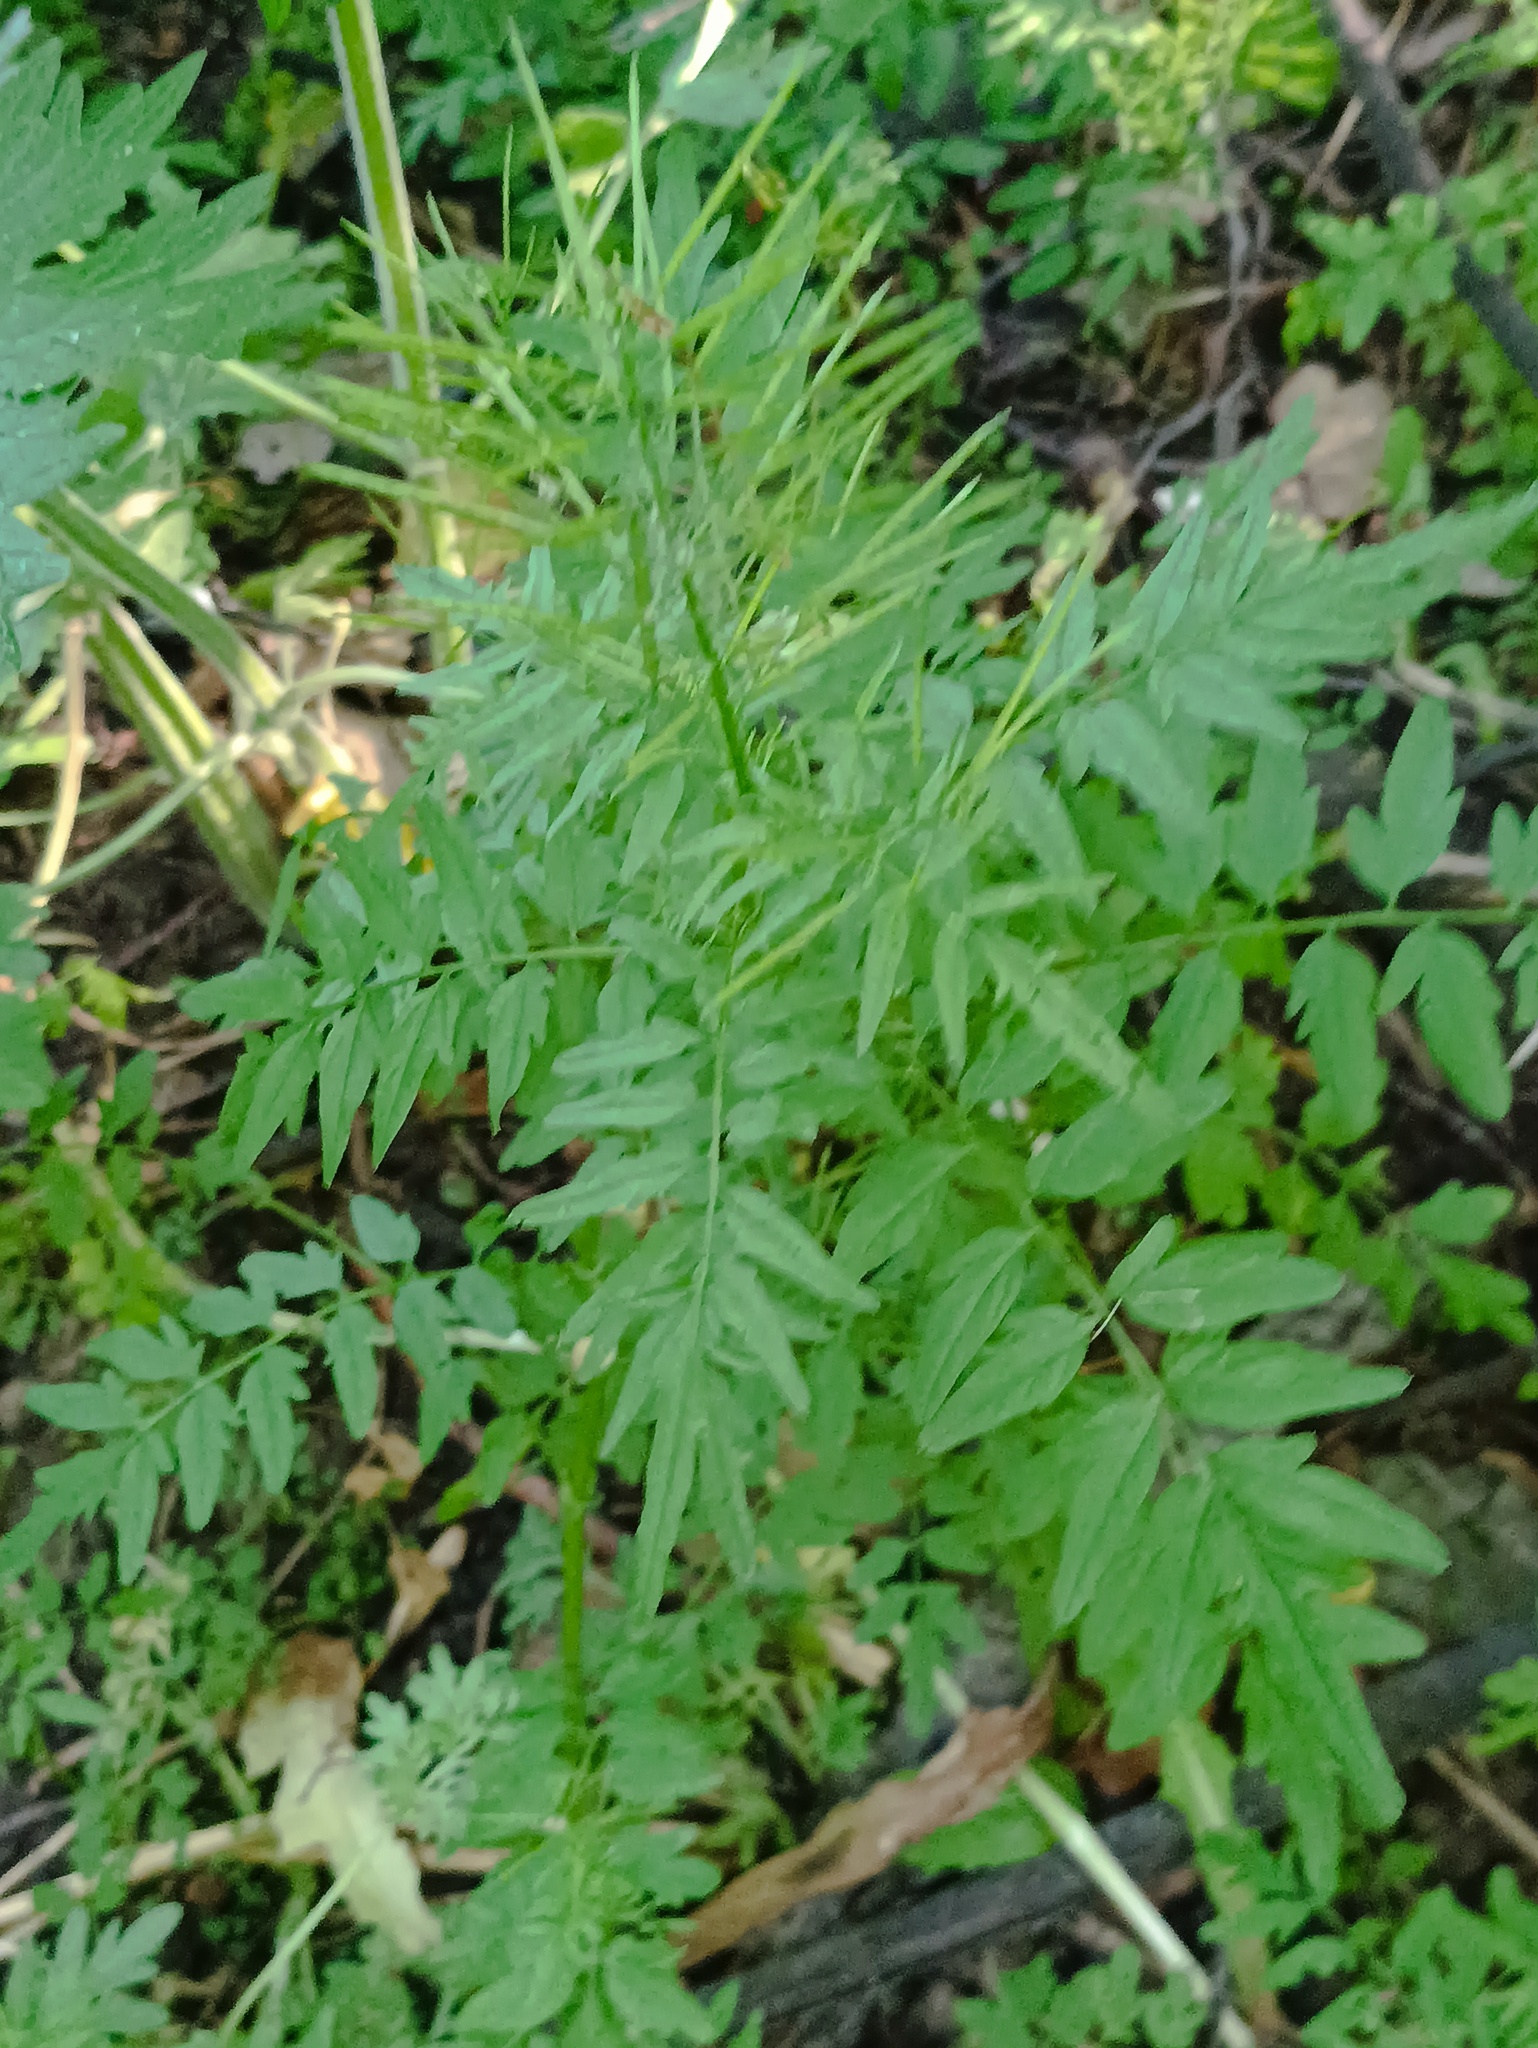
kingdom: Plantae
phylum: Tracheophyta
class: Magnoliopsida
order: Brassicales
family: Brassicaceae
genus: Cardamine
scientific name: Cardamine impatiens
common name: Narrow-leaved bitter-cress
